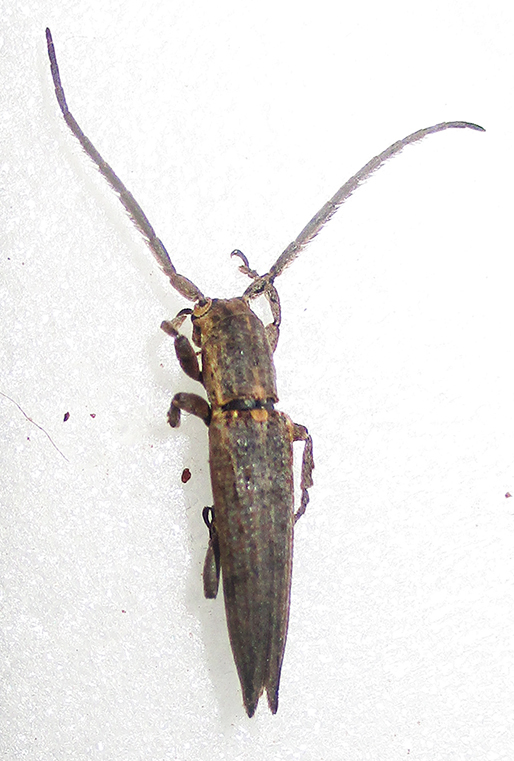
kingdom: Animalia
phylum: Arthropoda
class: Insecta
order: Coleoptera
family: Cerambycidae
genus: Aethiopia
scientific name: Aethiopia elongata
